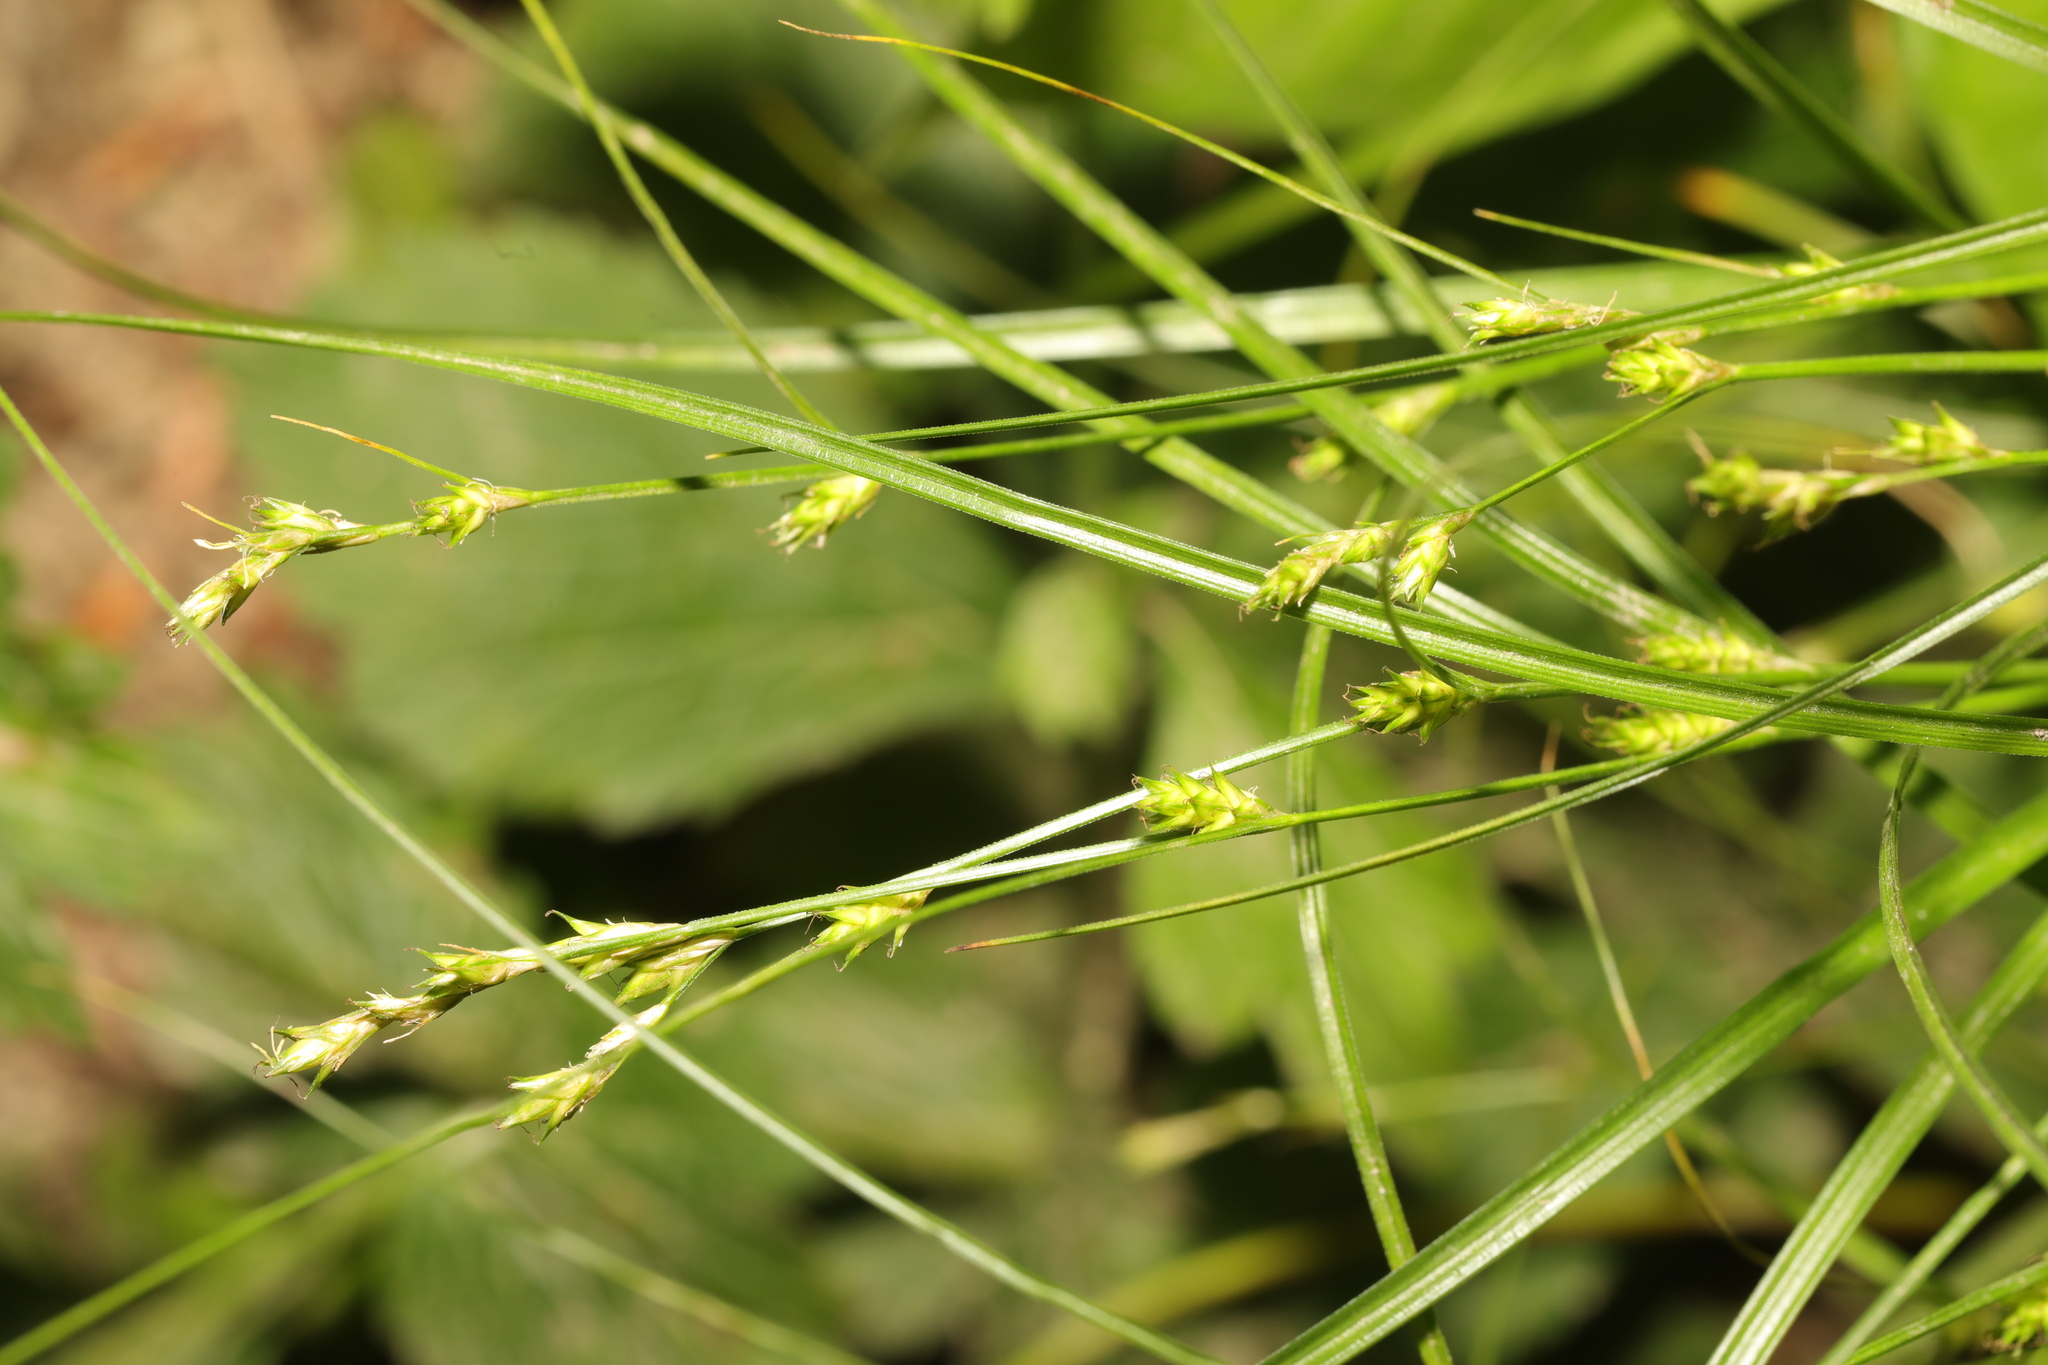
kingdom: Plantae
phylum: Tracheophyta
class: Liliopsida
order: Poales
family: Cyperaceae
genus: Carex
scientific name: Carex remota
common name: Remote sedge
